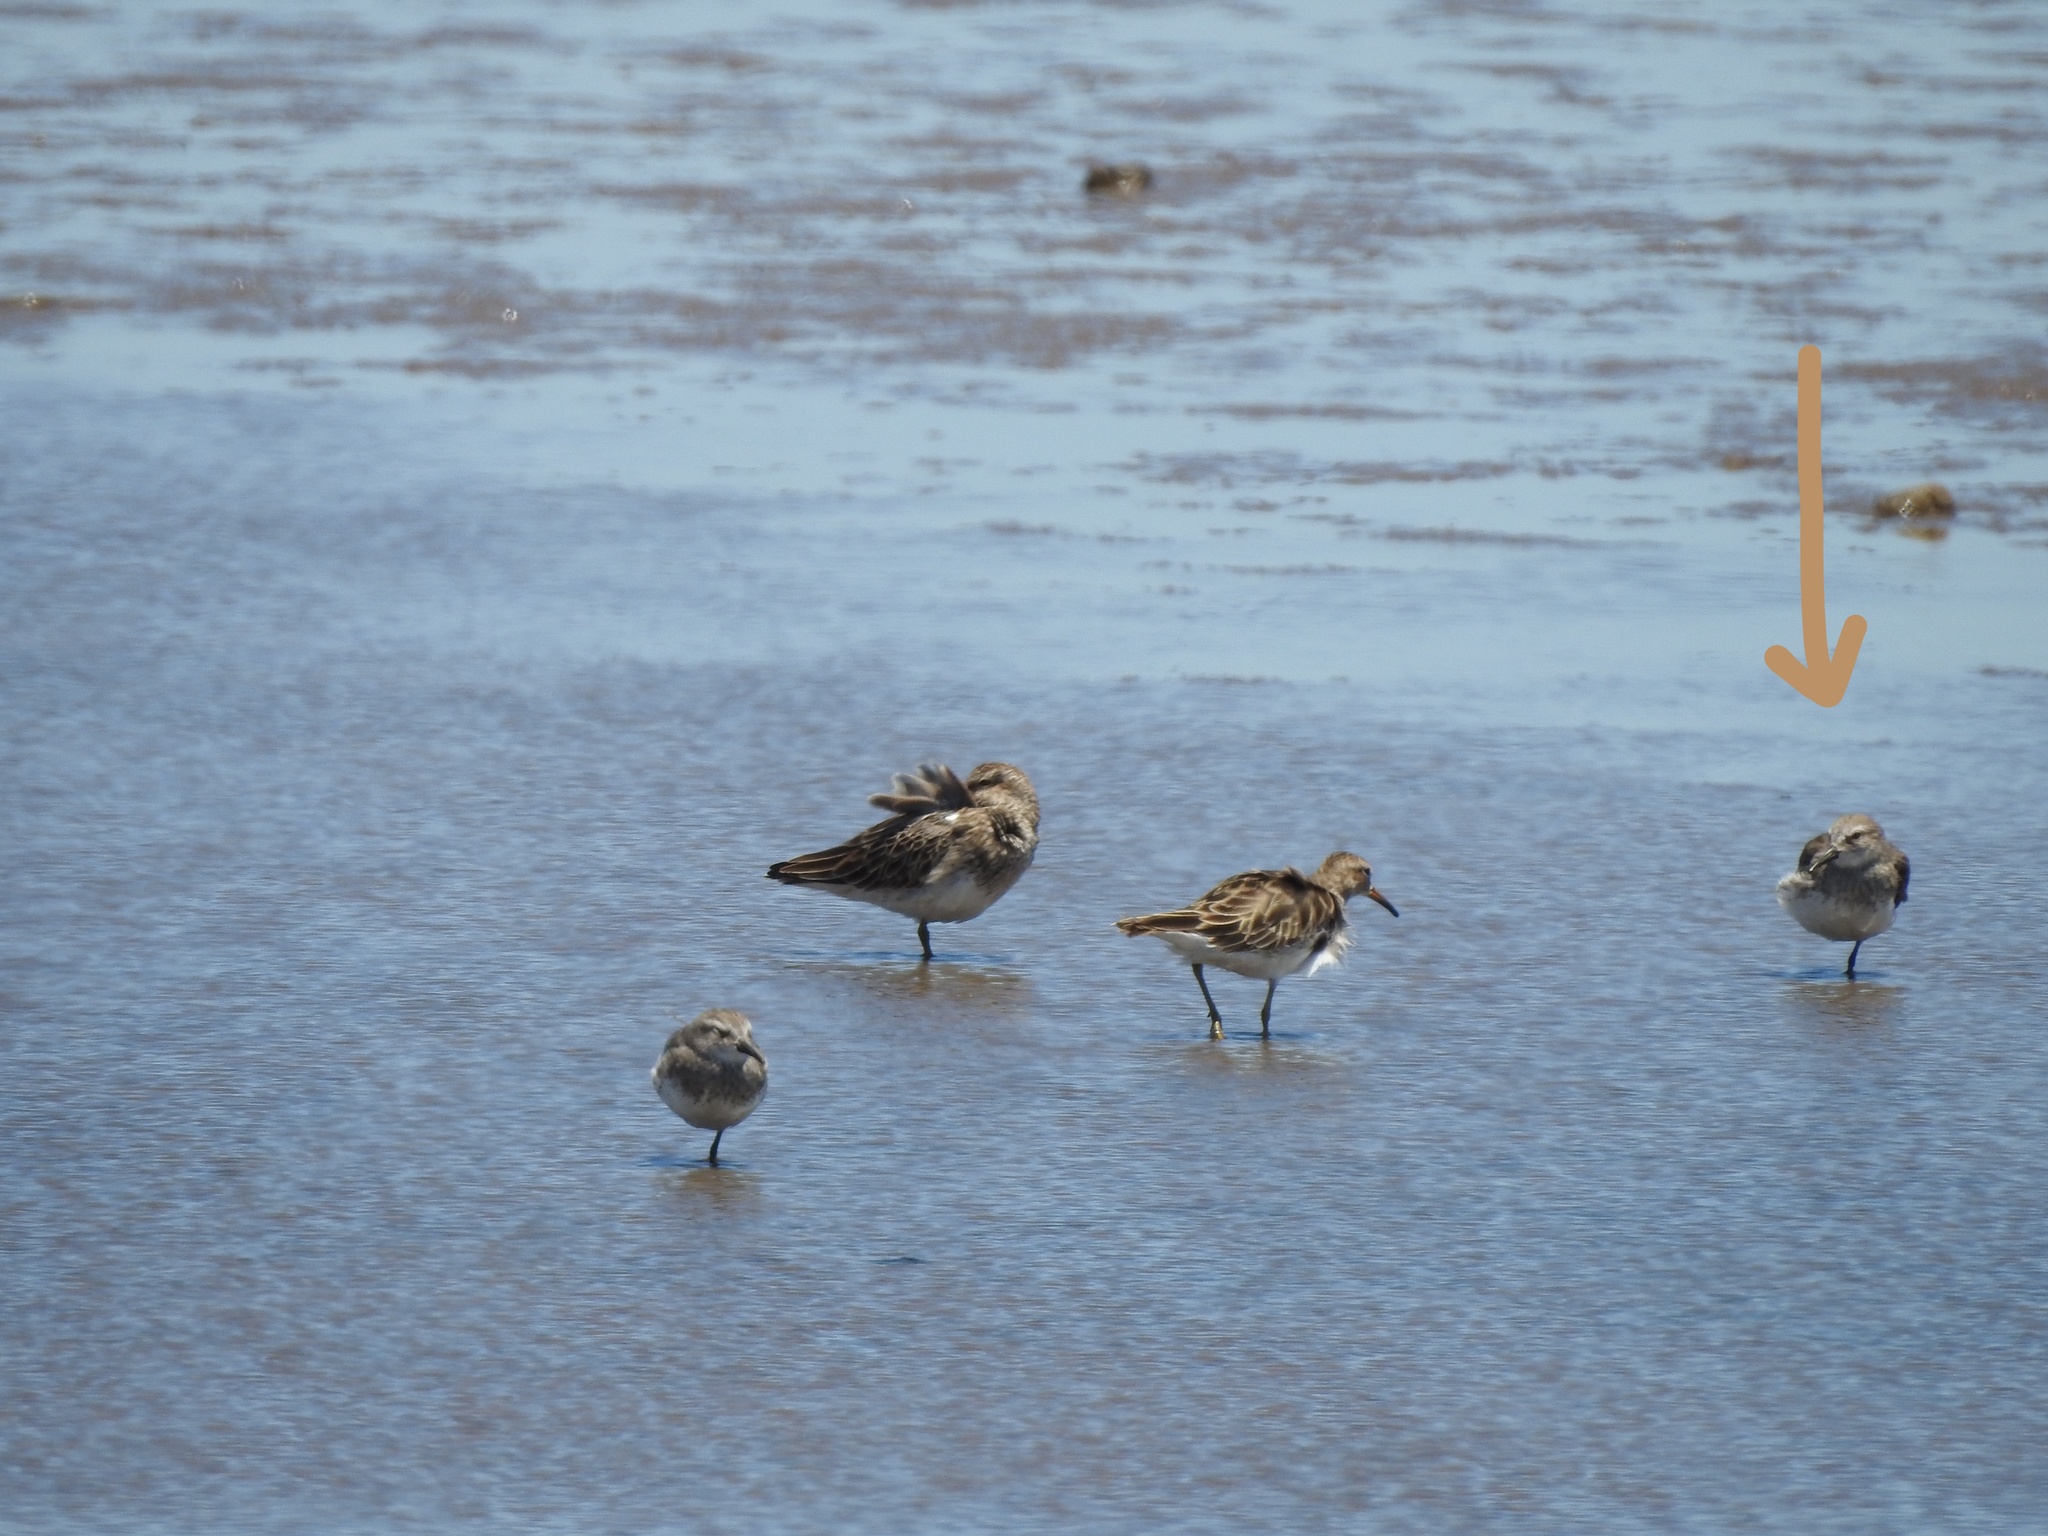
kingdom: Animalia
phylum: Chordata
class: Aves
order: Charadriiformes
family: Scolopacidae
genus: Calidris
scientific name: Calidris fuscicollis
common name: White-rumped sandpiper
